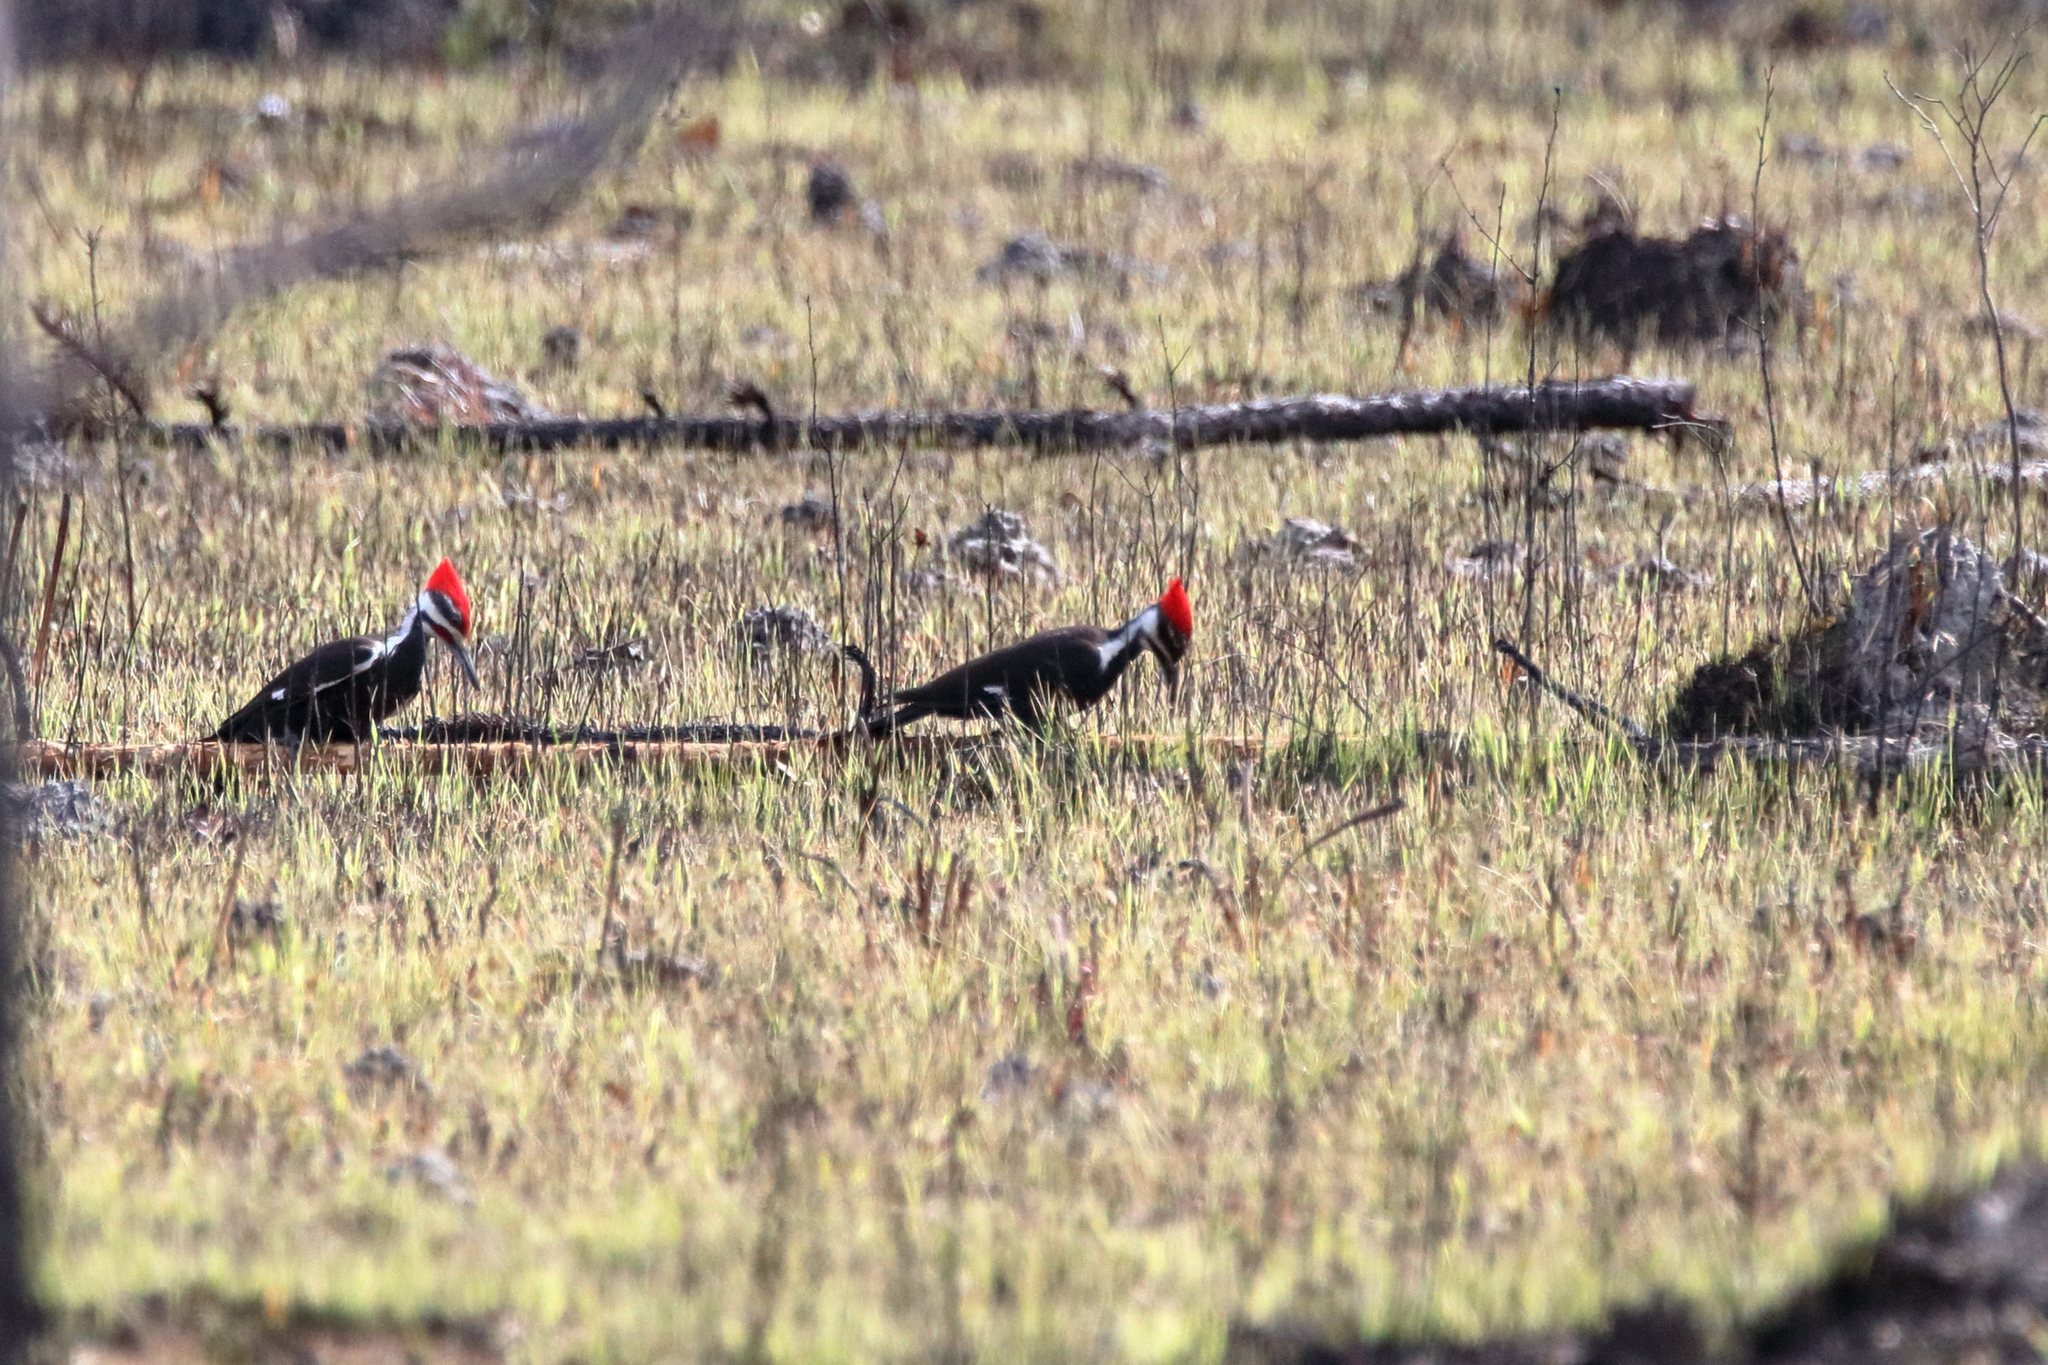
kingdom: Animalia
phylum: Chordata
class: Aves
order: Piciformes
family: Picidae
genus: Dryocopus
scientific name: Dryocopus pileatus
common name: Pileated woodpecker
